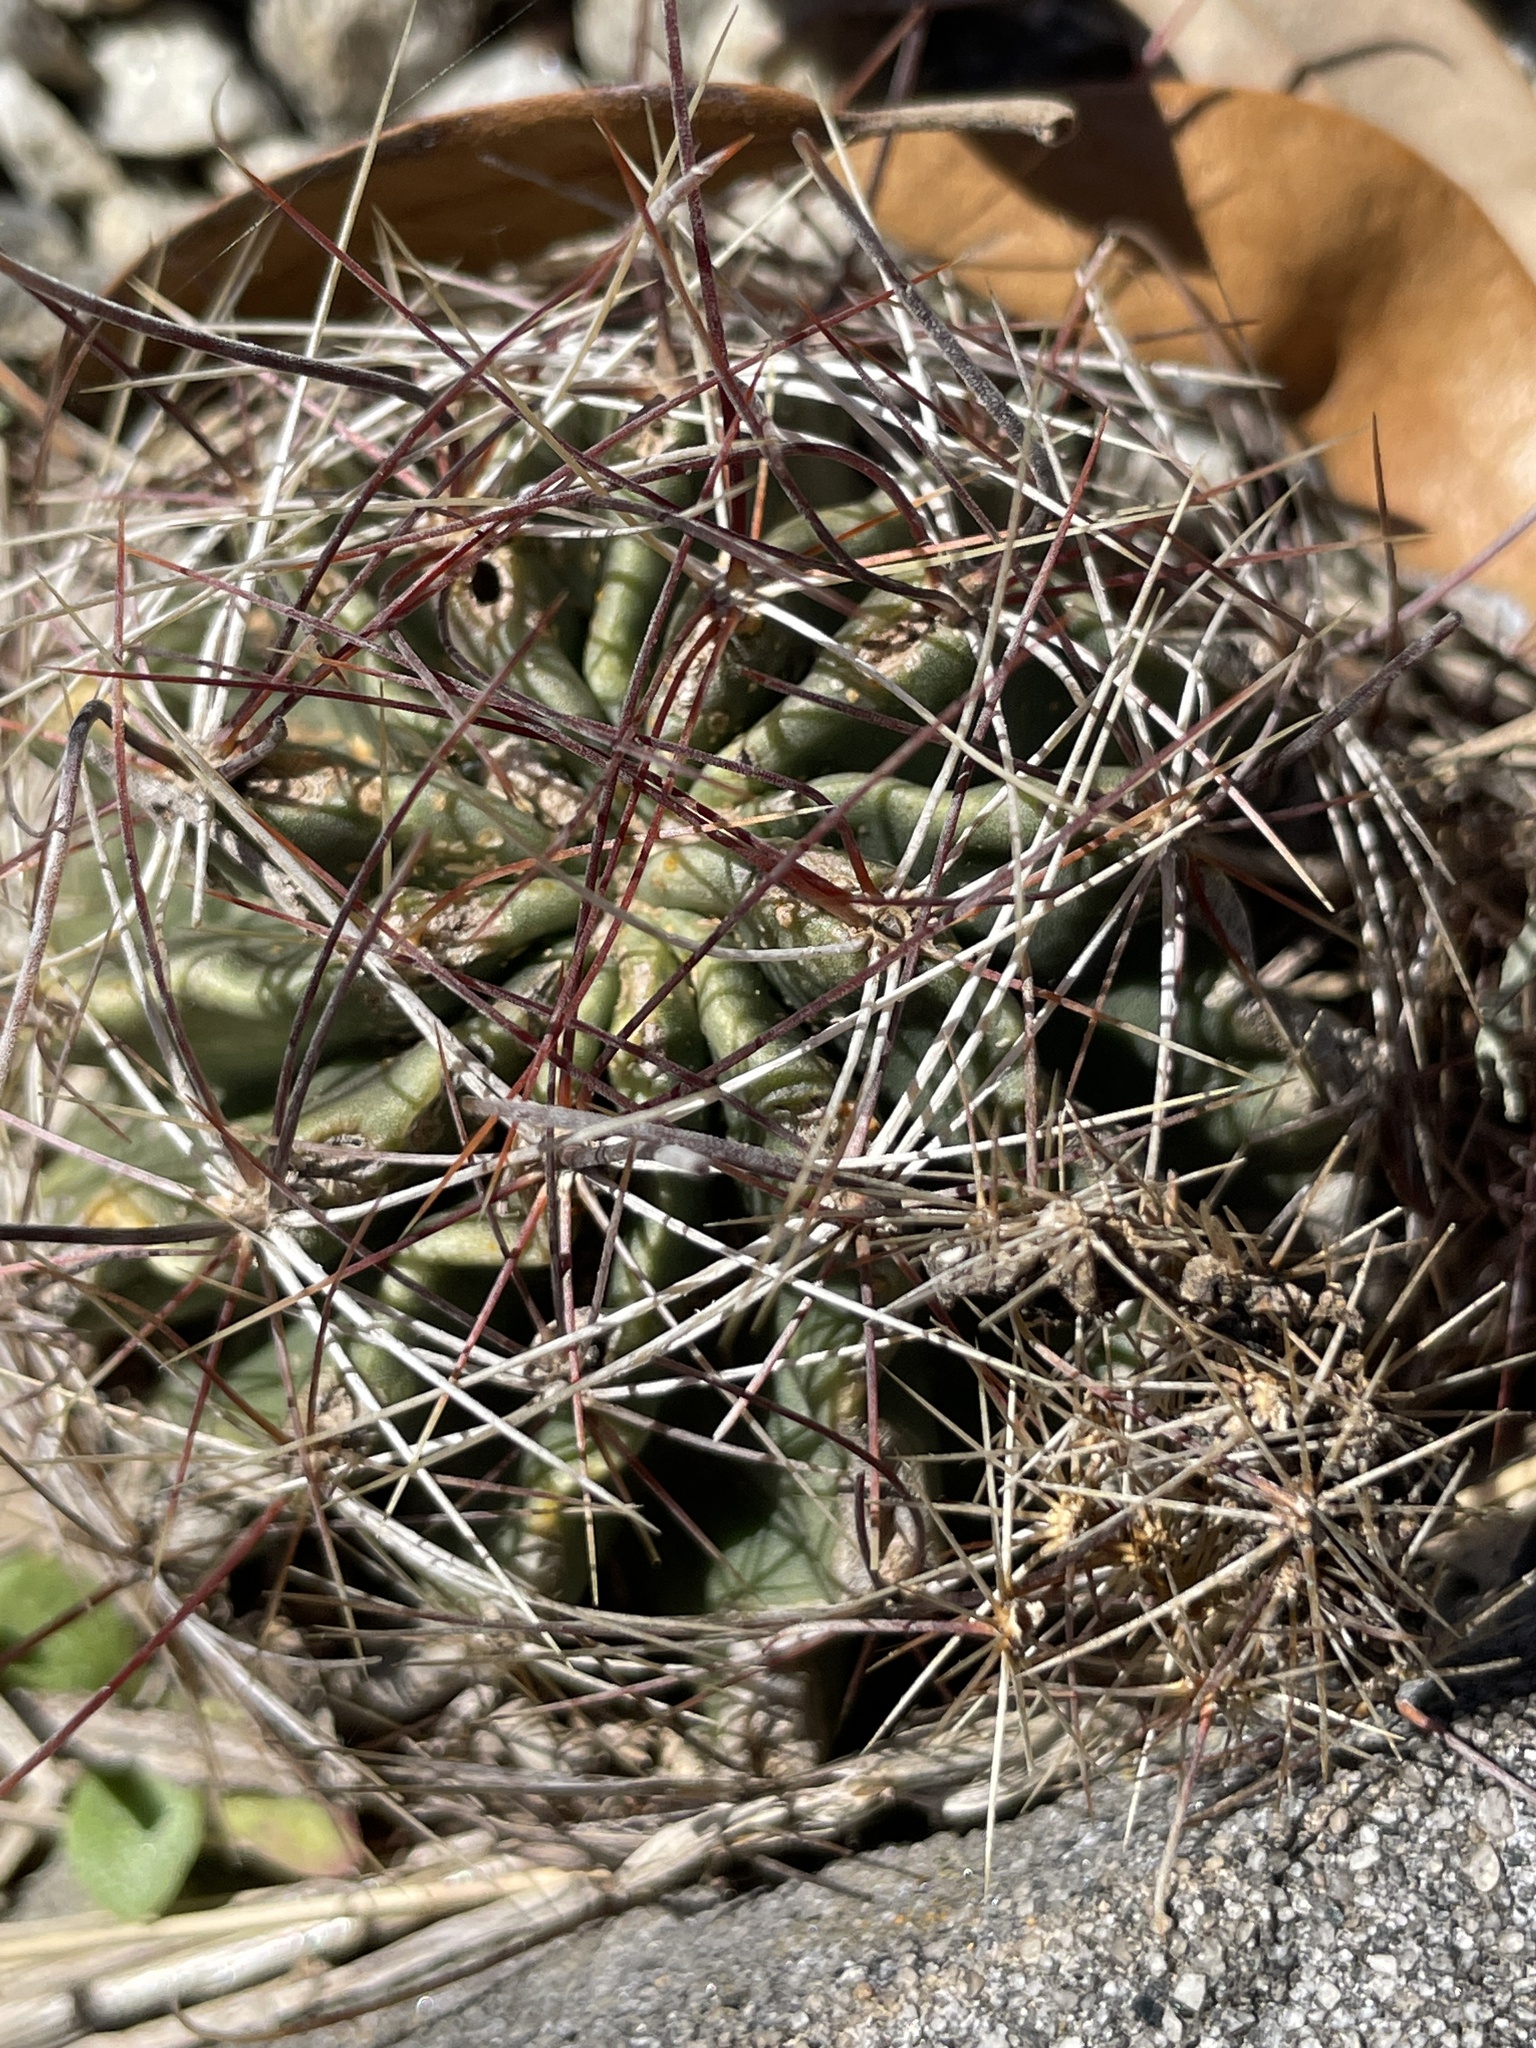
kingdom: Plantae
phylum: Tracheophyta
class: Magnoliopsida
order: Caryophyllales
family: Cactaceae
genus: Thelocactus
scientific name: Thelocactus setispinus
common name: Miniature barrel cactus
